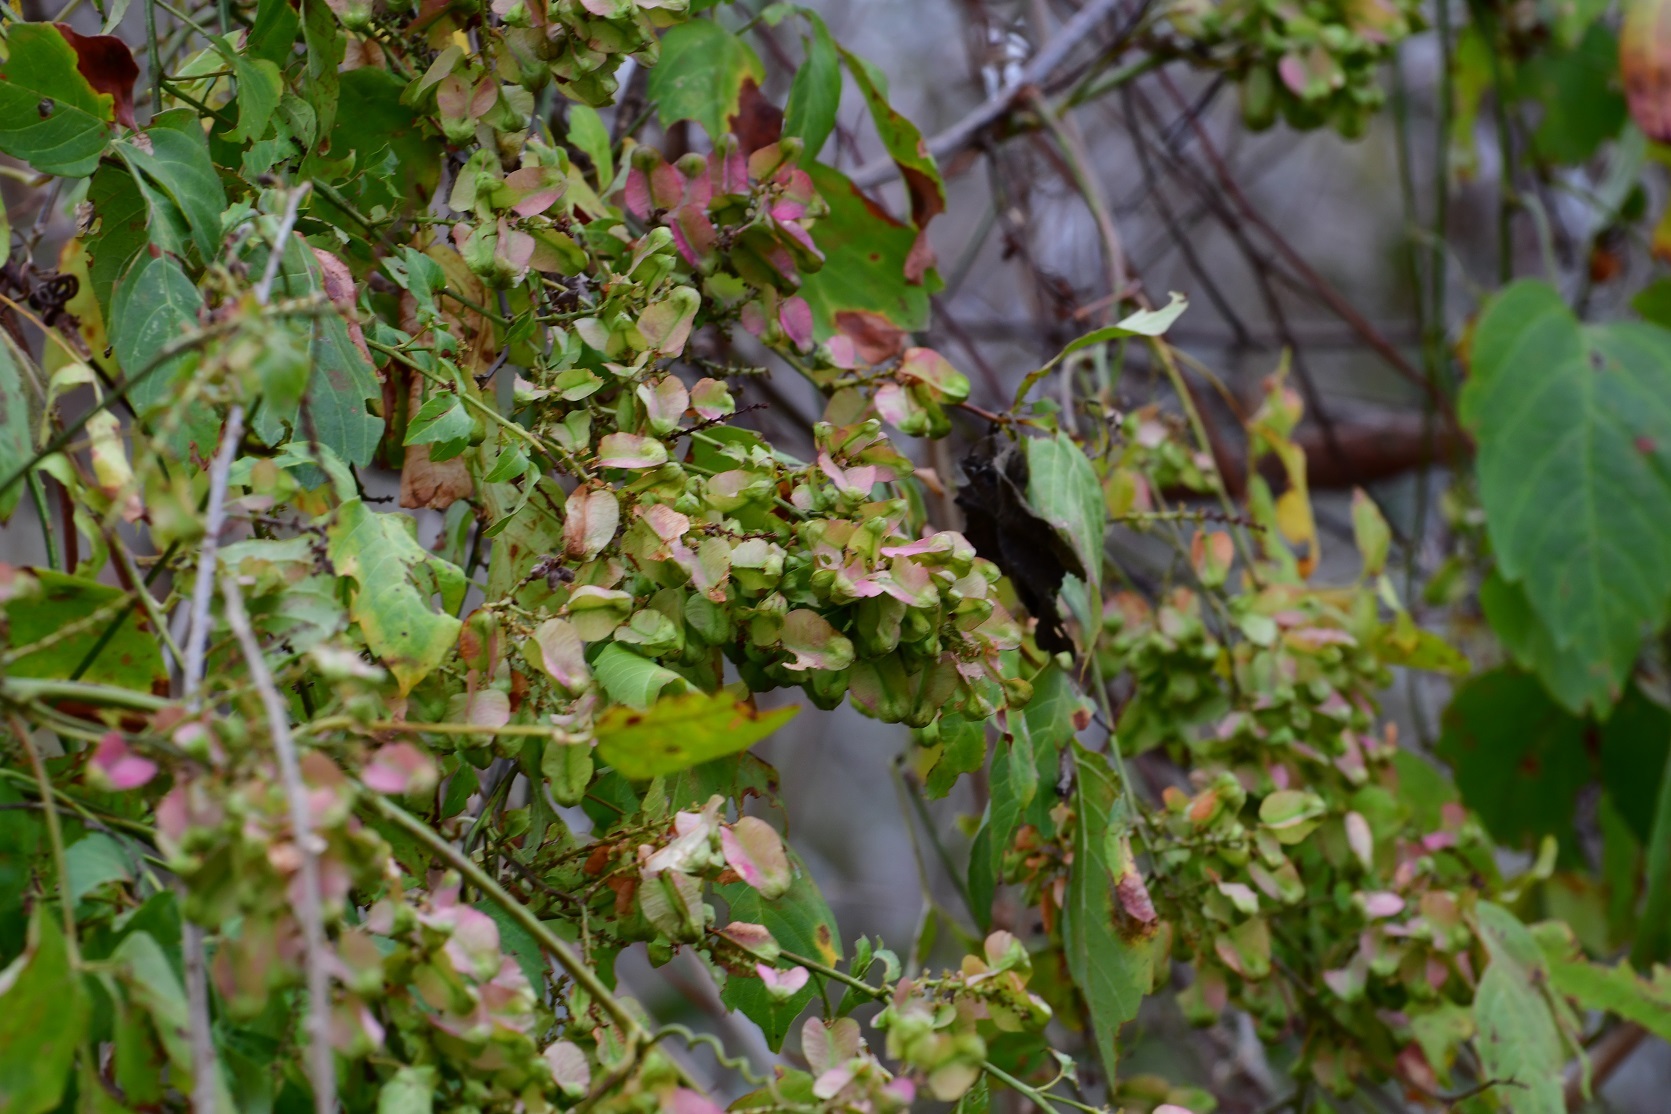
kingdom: Plantae
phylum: Tracheophyta
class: Magnoliopsida
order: Sapindales
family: Sapindaceae
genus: Serjania
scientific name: Serjania racemosa
